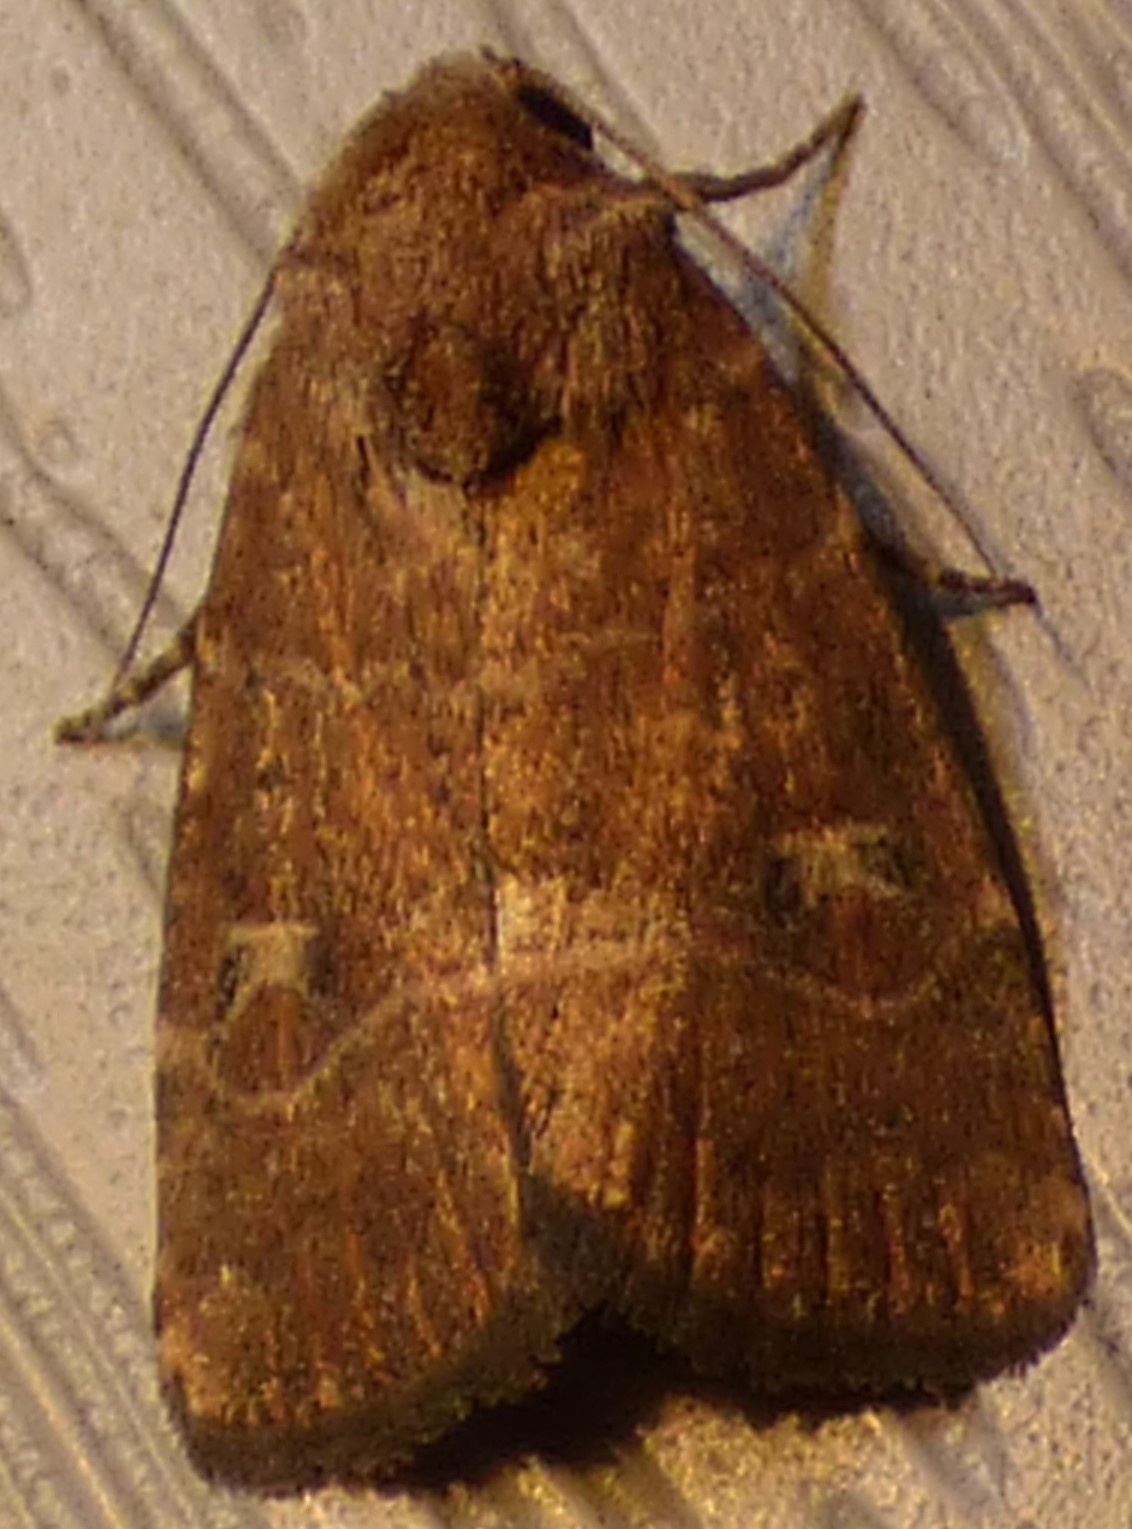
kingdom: Animalia
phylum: Arthropoda
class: Insecta
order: Lepidoptera
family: Noctuidae
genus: Elaphria
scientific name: Elaphria grata
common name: Grateful midget moth
